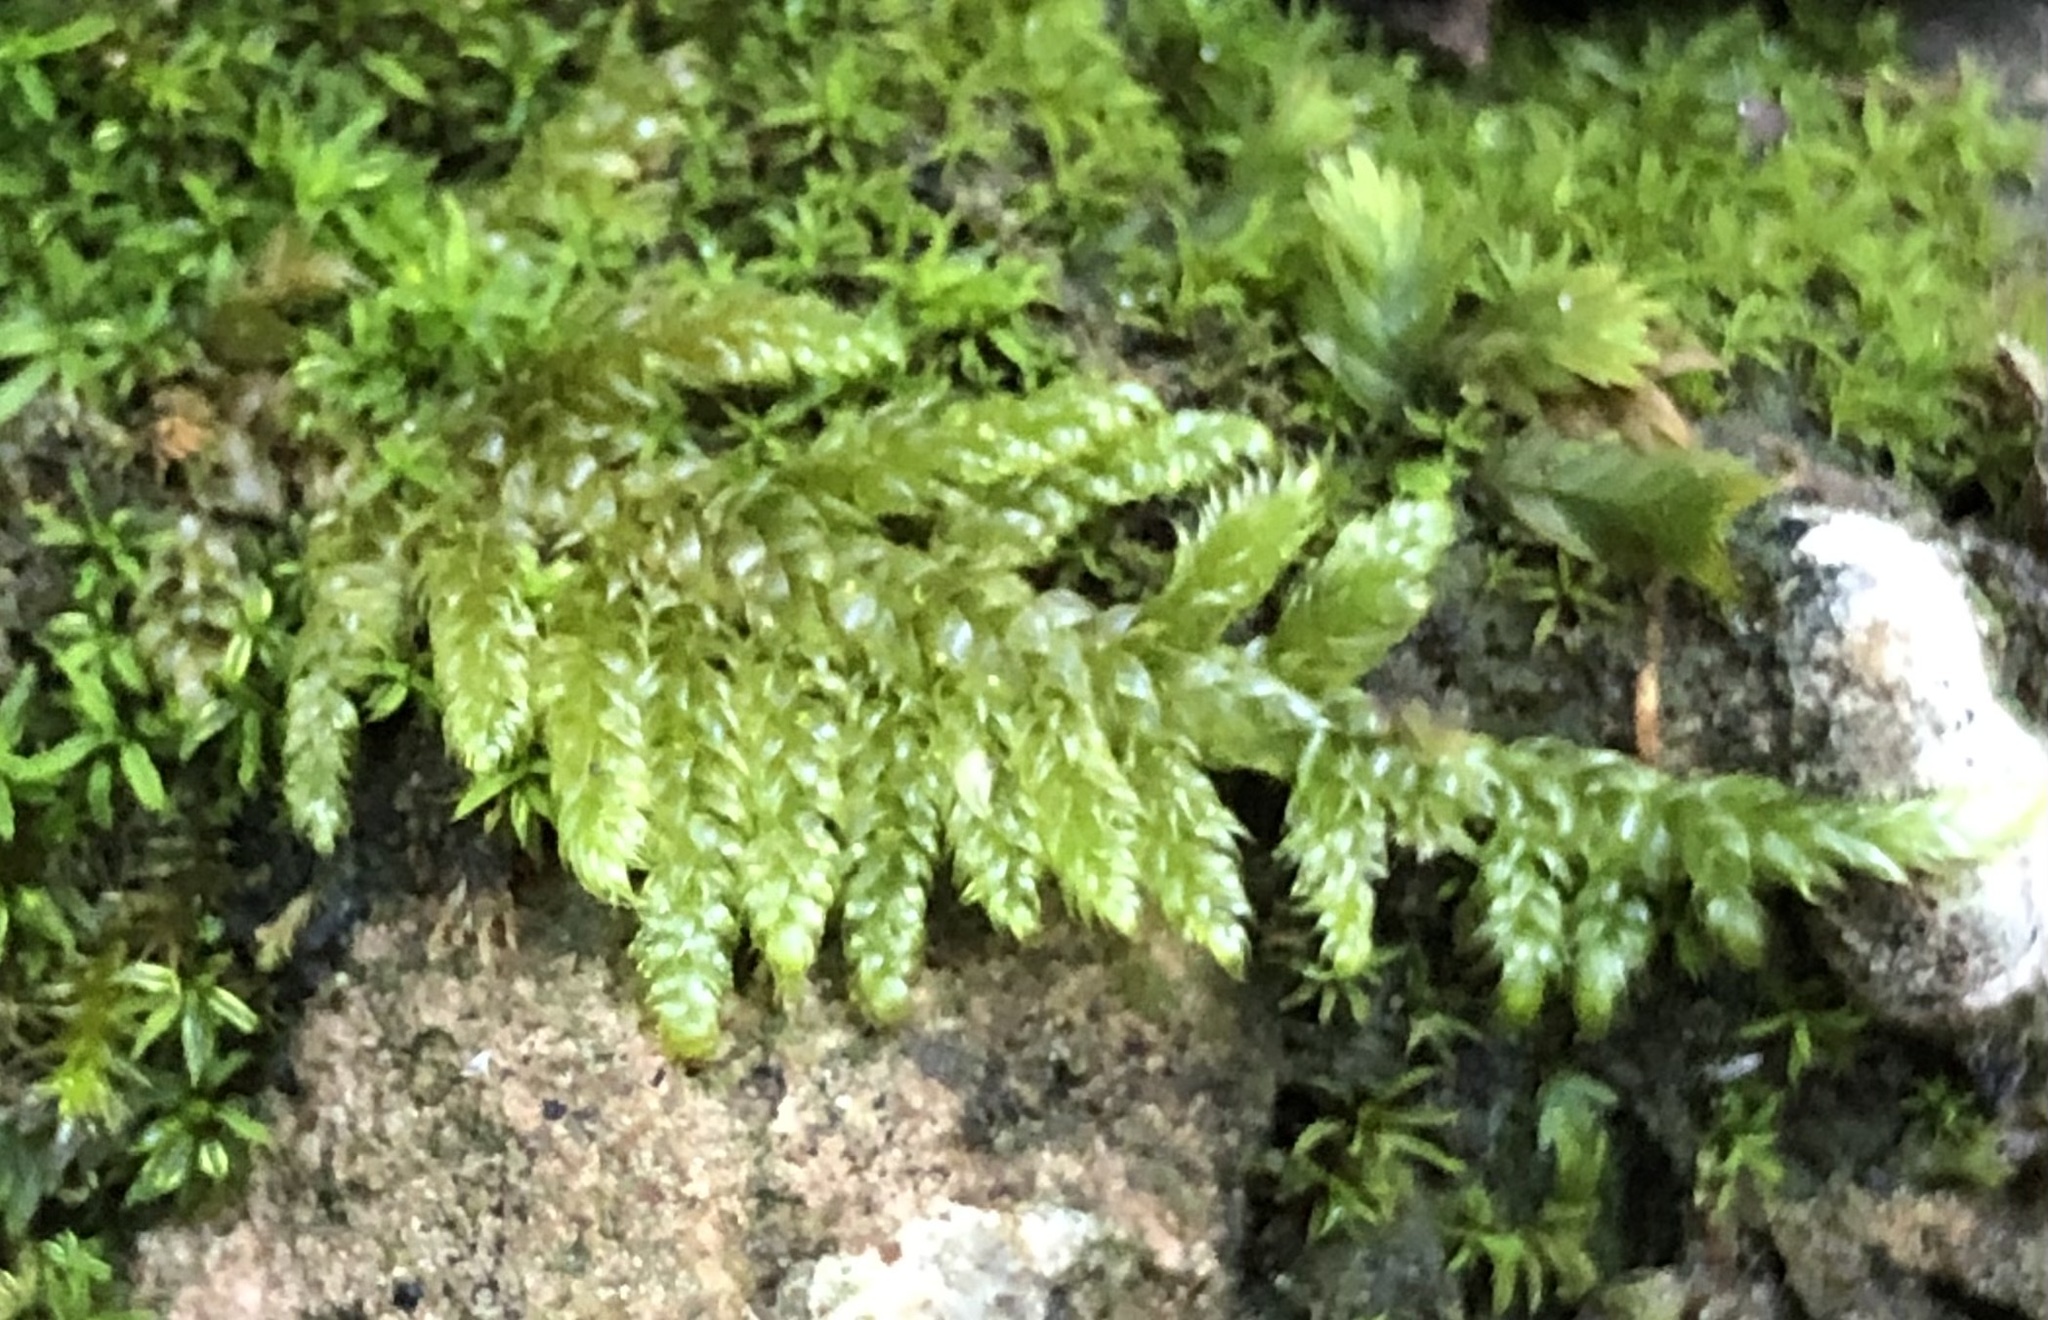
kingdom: Plantae
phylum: Bryophyta
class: Bryopsida
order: Hypnales
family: Hypnaceae
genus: Hypnum
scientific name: Hypnum cupressiforme
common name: Cypress-leaved plait-moss
